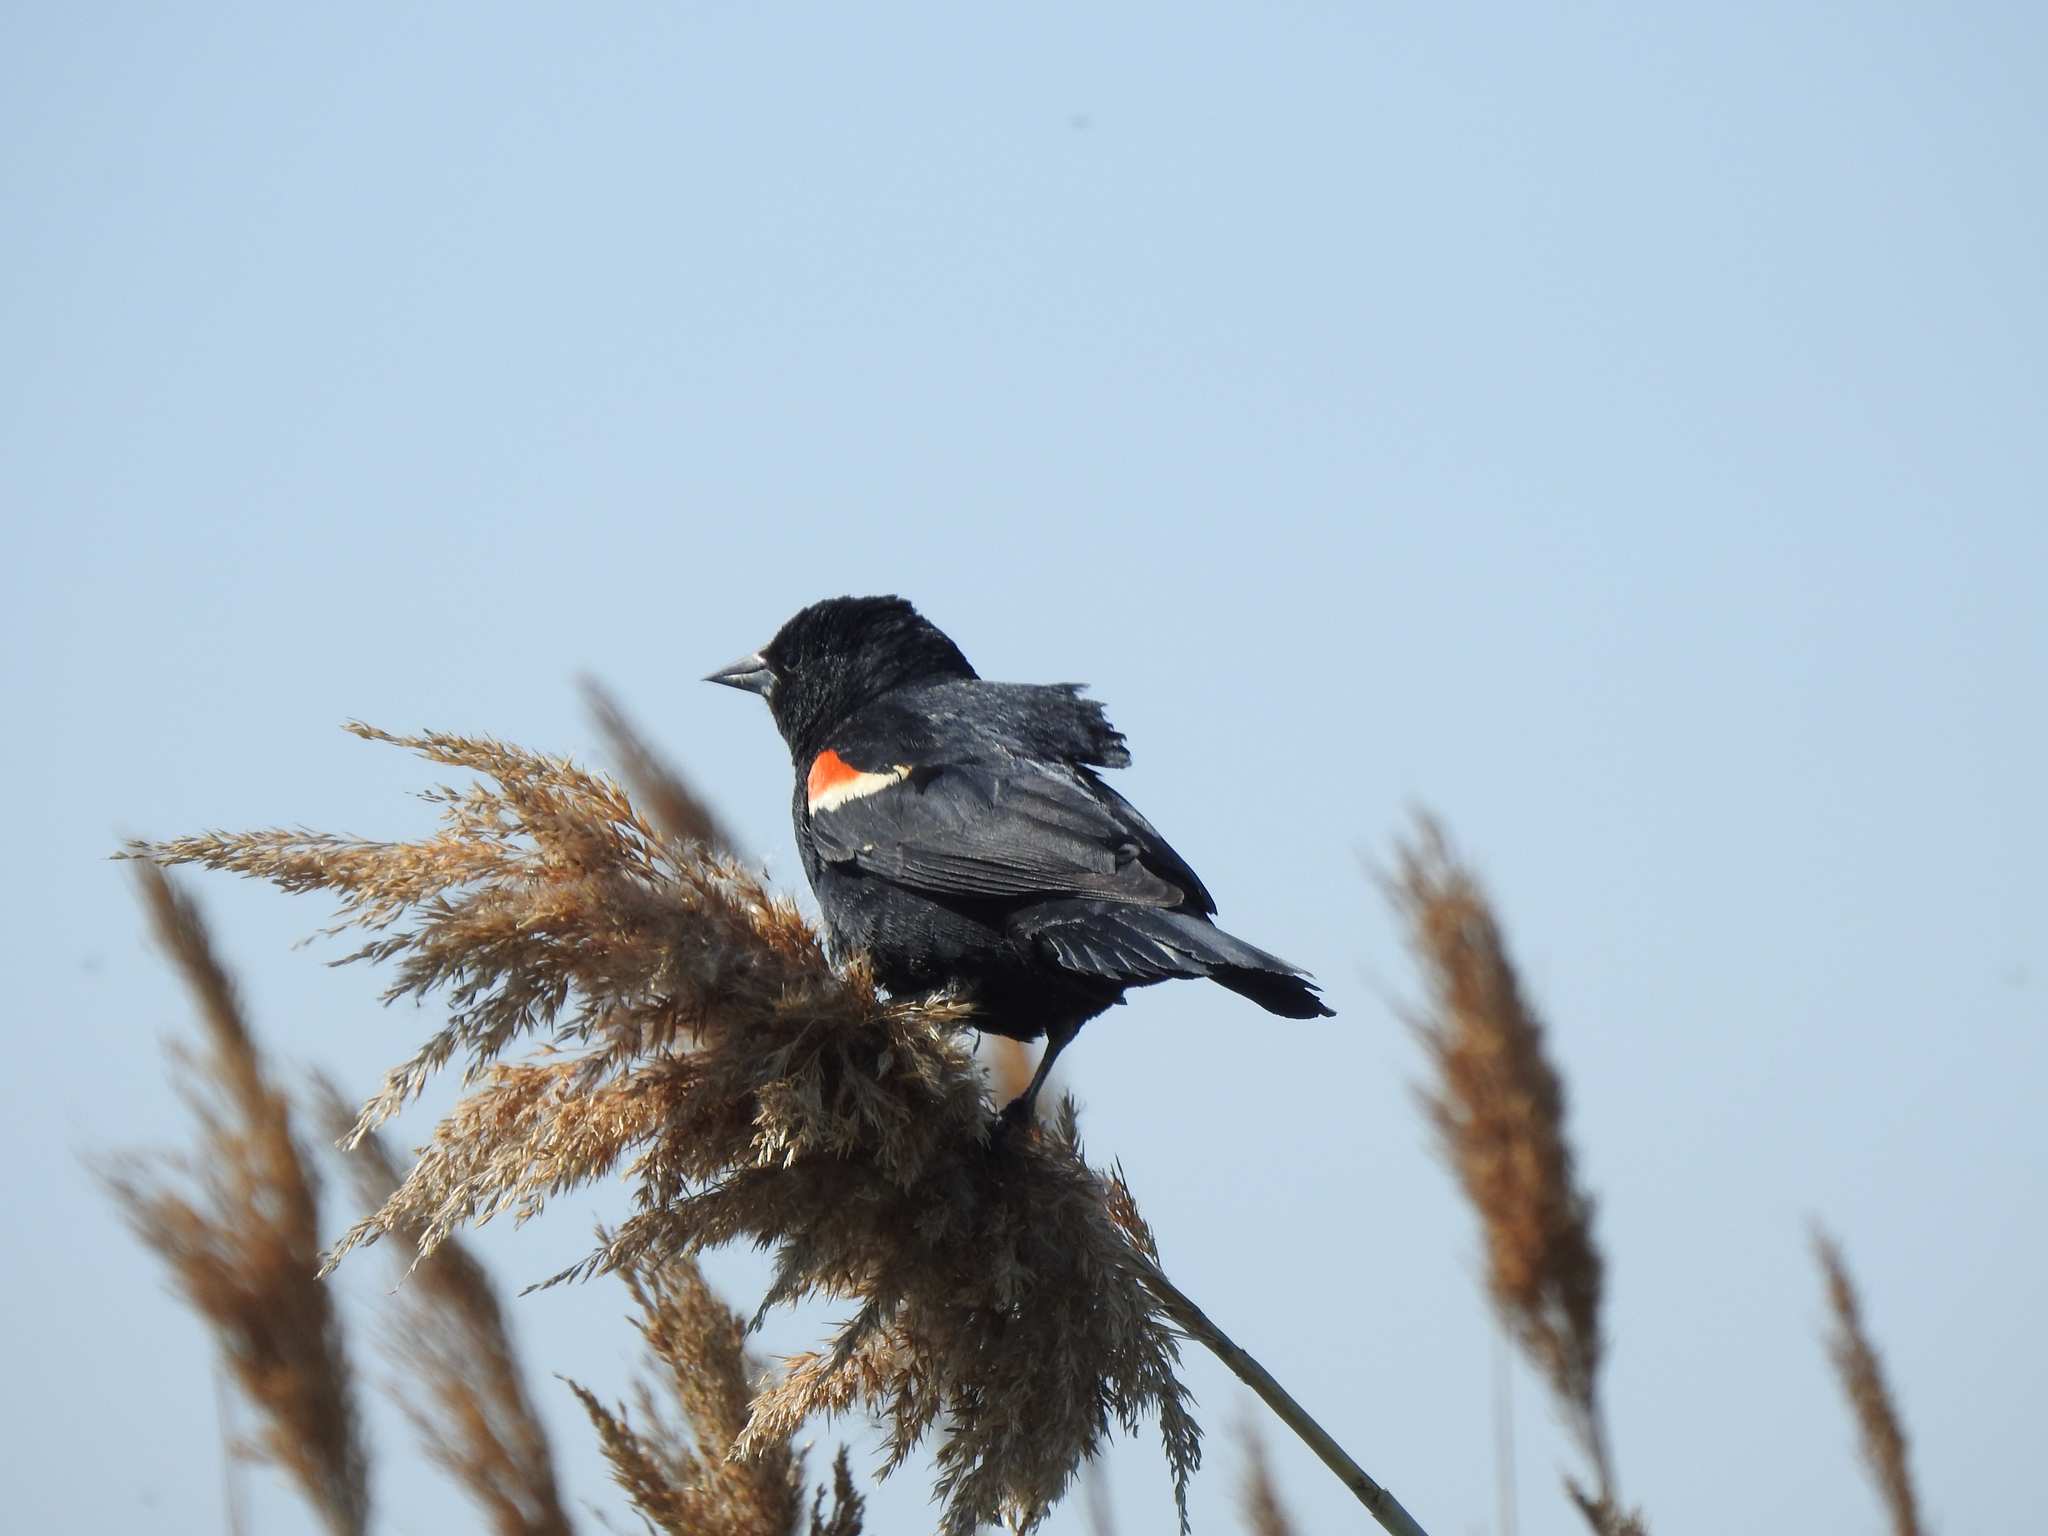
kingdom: Animalia
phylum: Chordata
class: Aves
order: Passeriformes
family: Icteridae
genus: Agelaius
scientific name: Agelaius phoeniceus
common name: Red-winged blackbird
